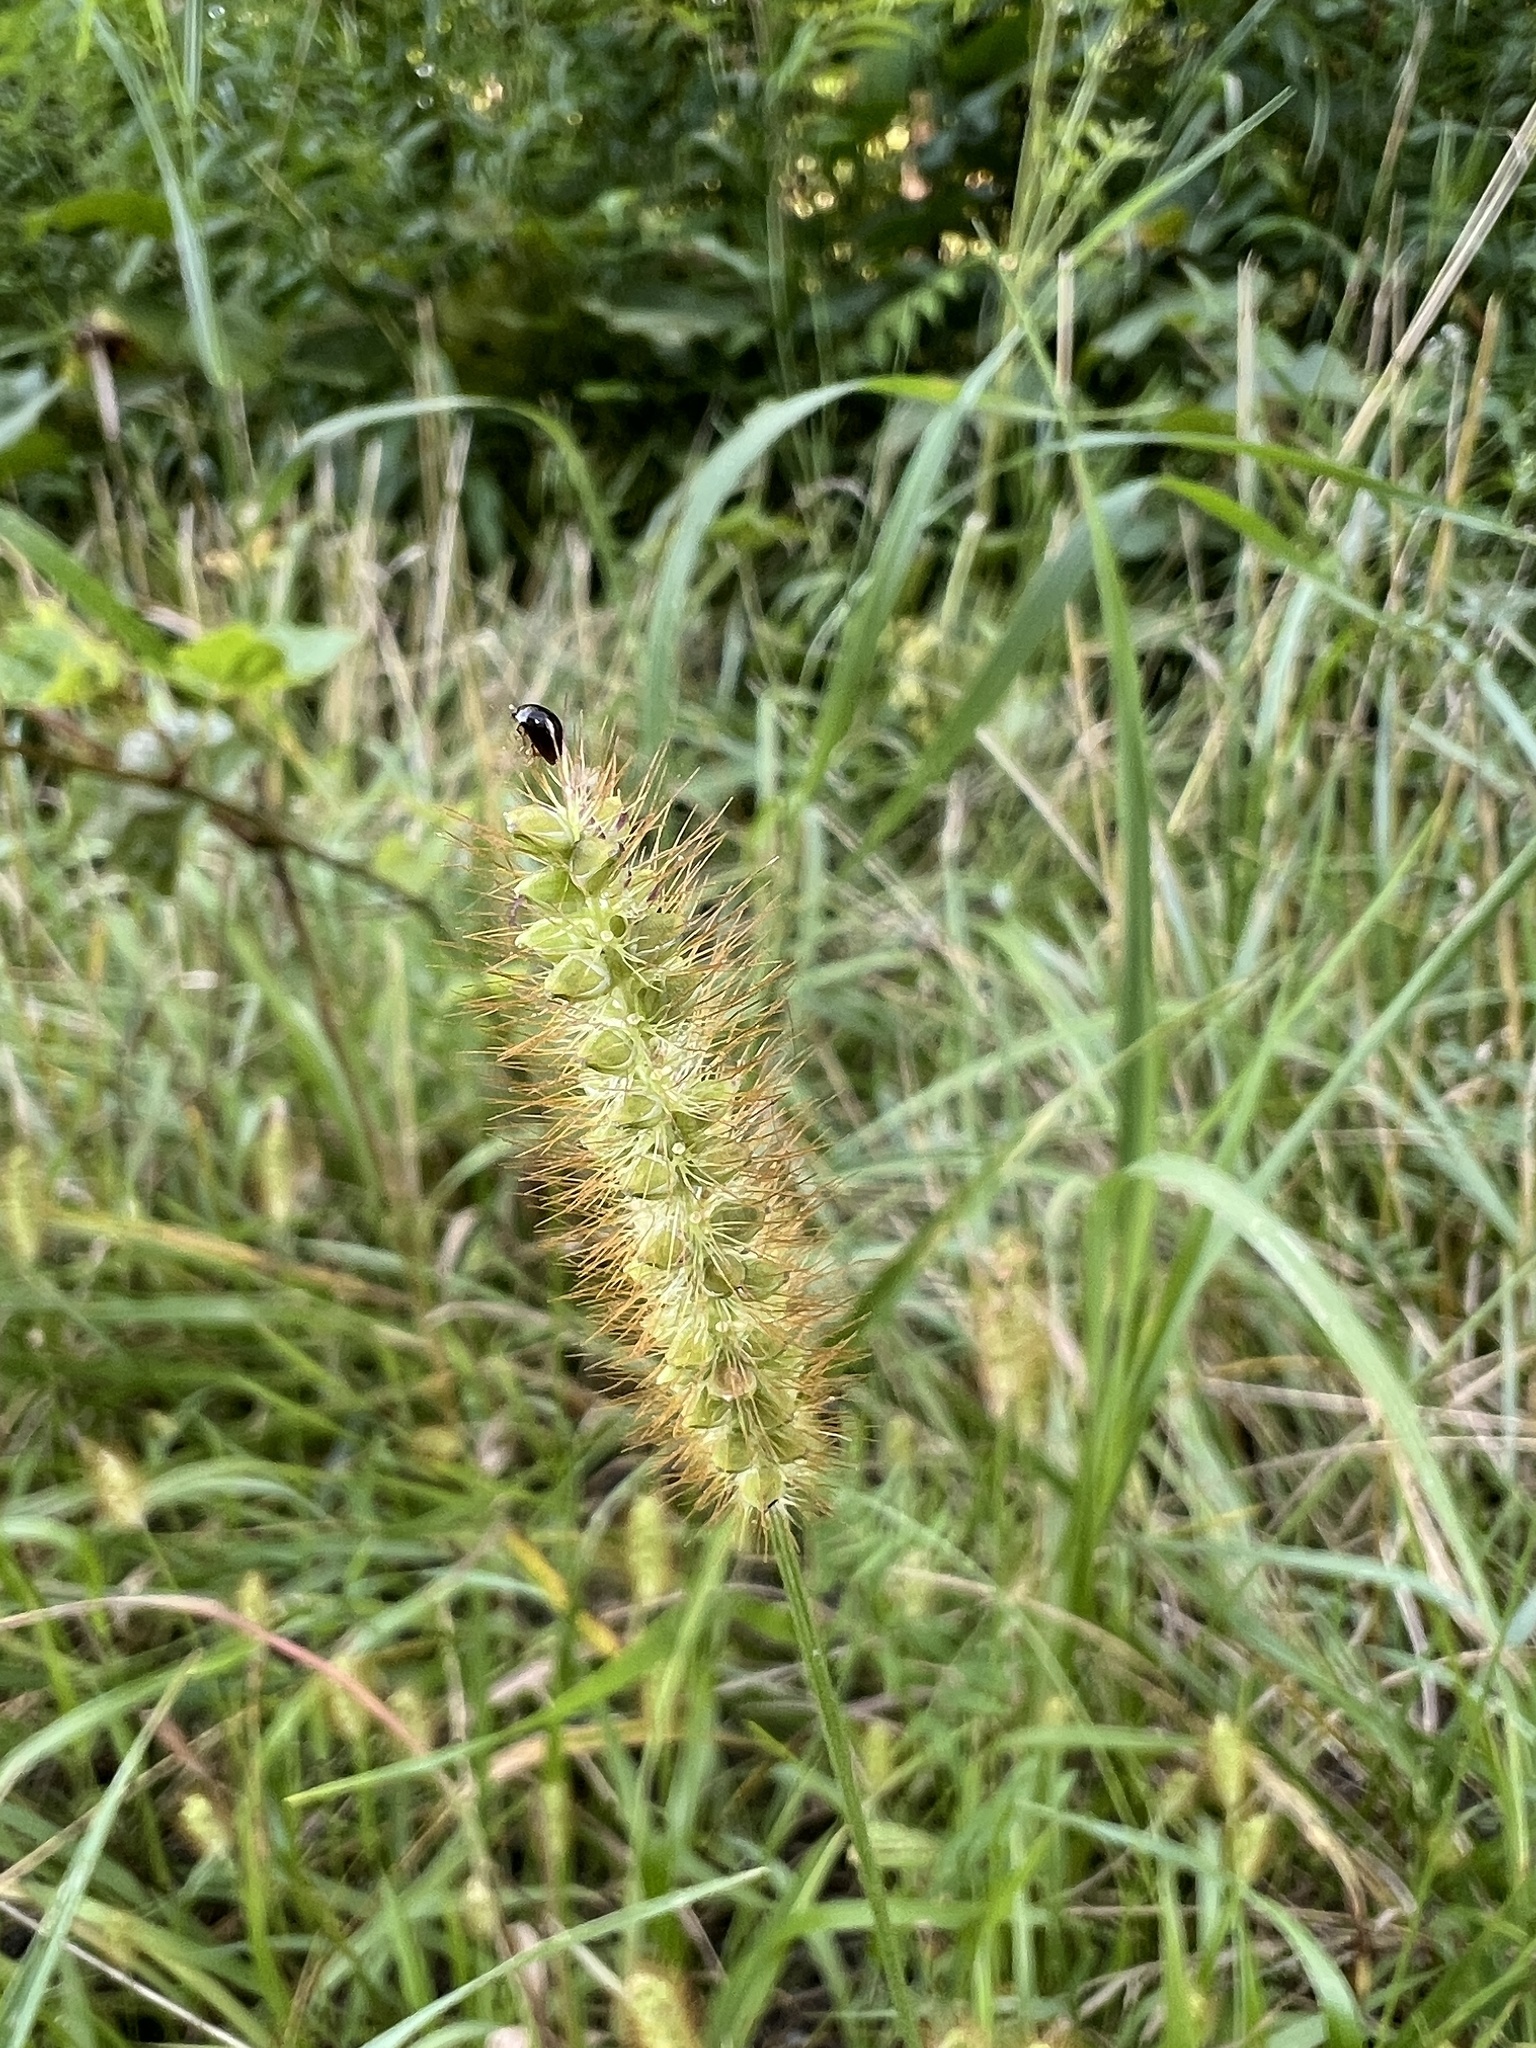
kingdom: Plantae
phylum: Tracheophyta
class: Liliopsida
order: Poales
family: Poaceae
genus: Setaria
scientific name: Setaria pumila
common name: Yellow bristle-grass
